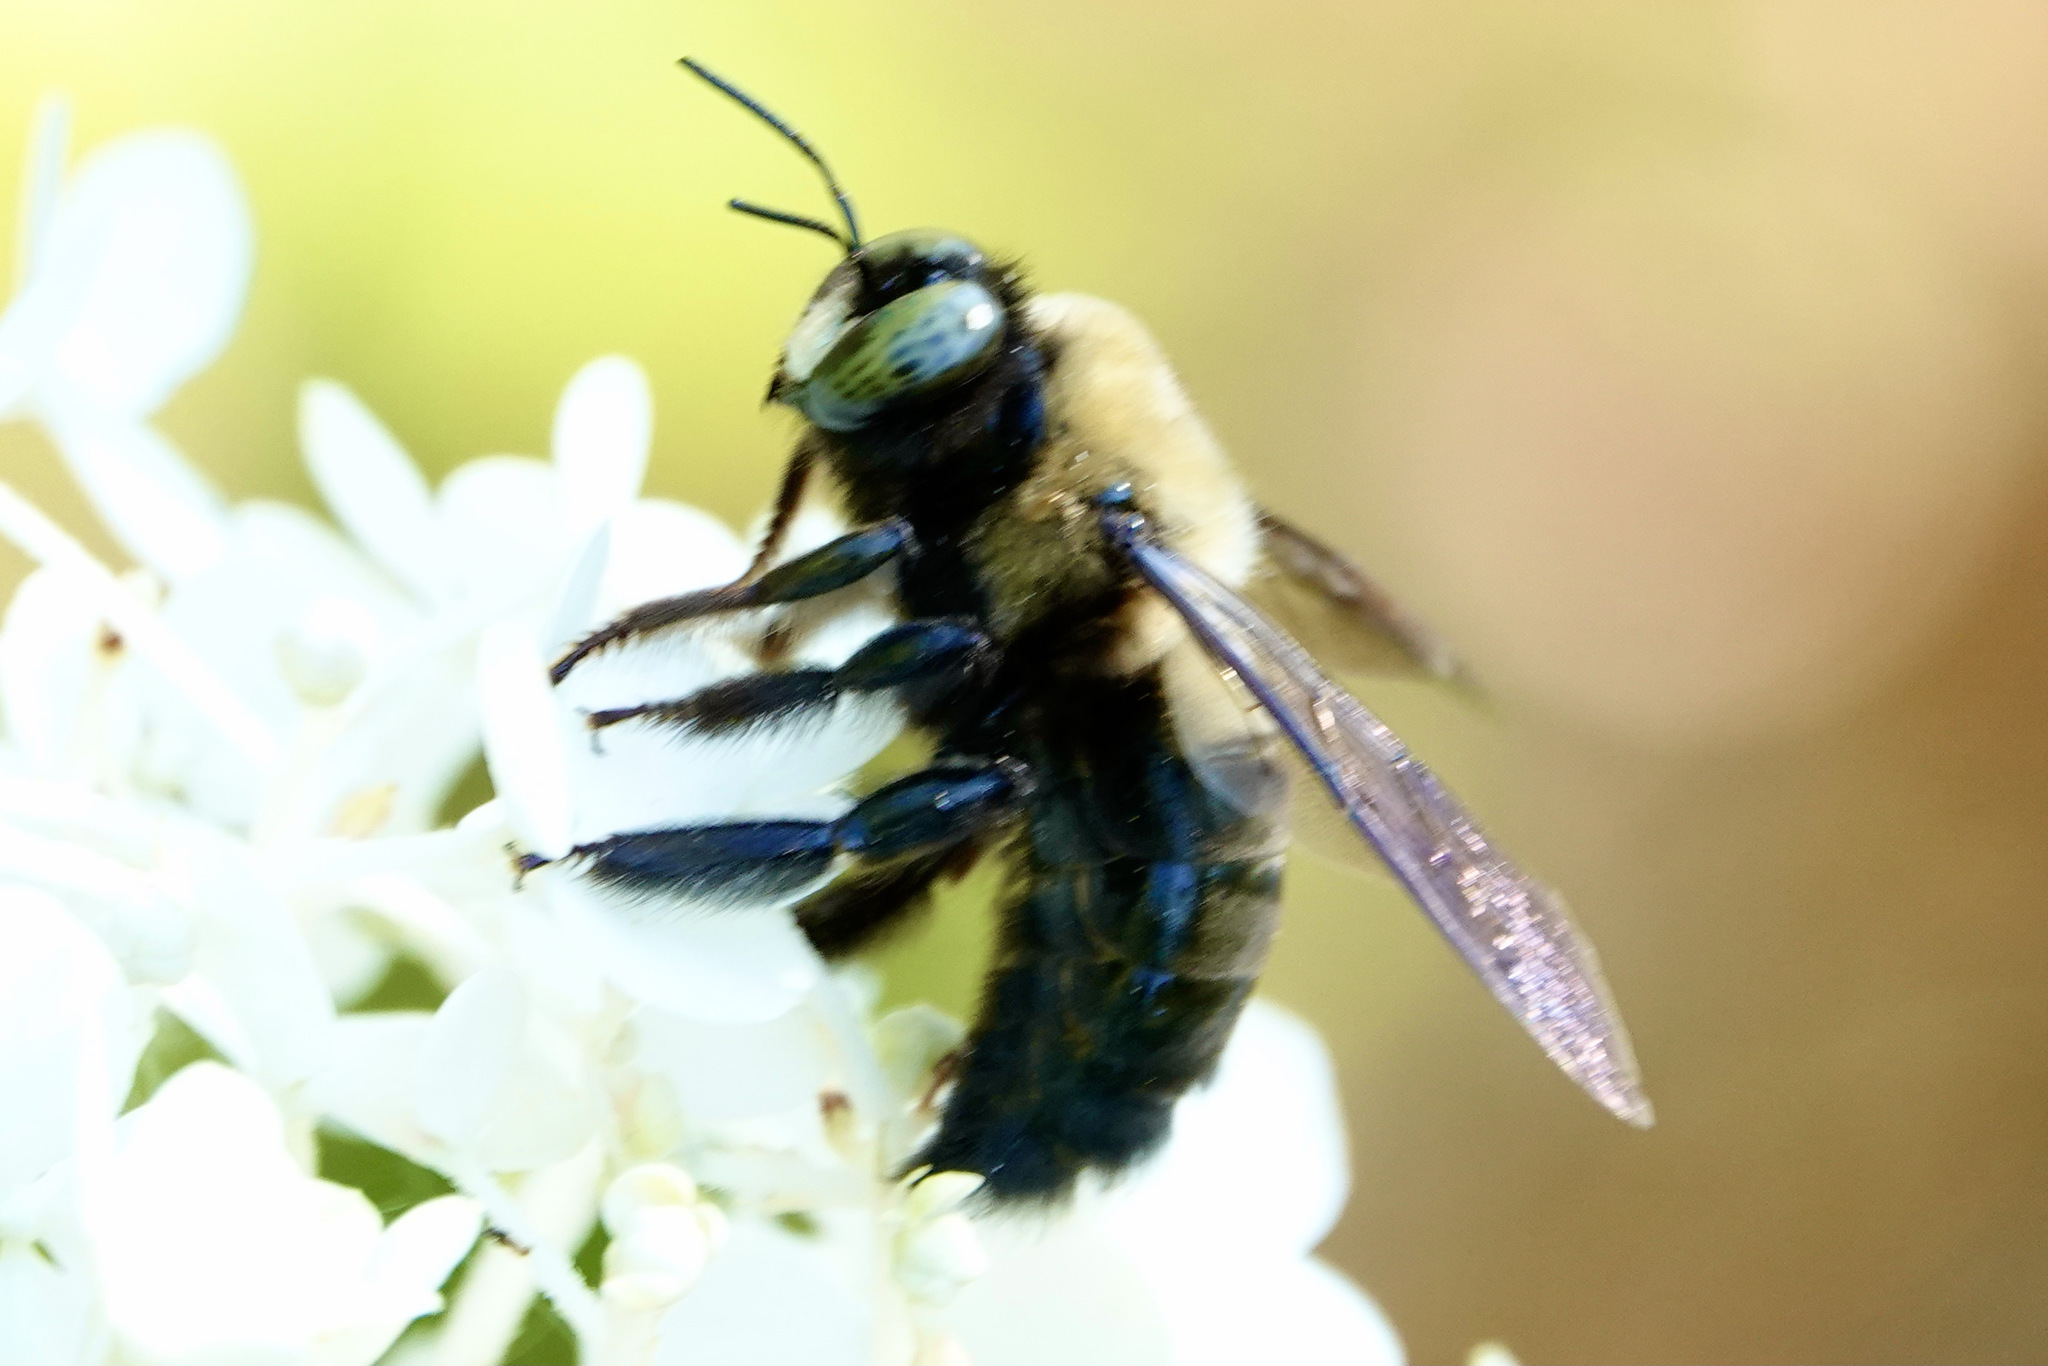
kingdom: Animalia
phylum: Arthropoda
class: Insecta
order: Hymenoptera
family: Apidae
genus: Xylocopa
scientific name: Xylocopa virginica
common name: Carpenter bee
